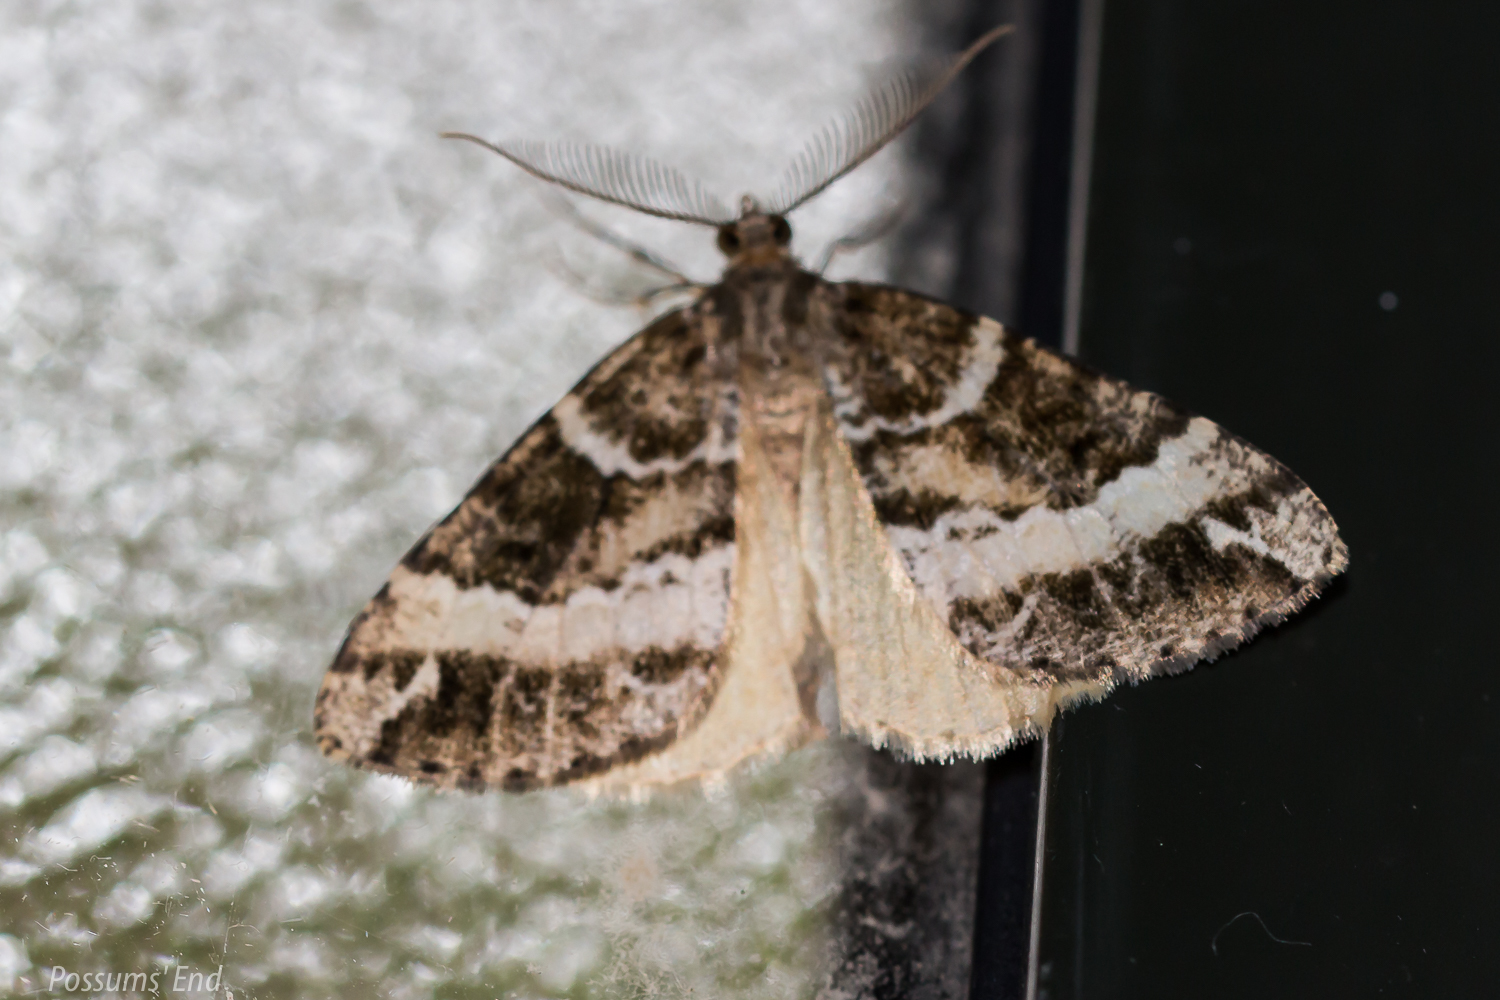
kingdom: Animalia
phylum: Arthropoda
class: Insecta
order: Lepidoptera
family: Geometridae
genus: Pseudocoremia
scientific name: Pseudocoremia
